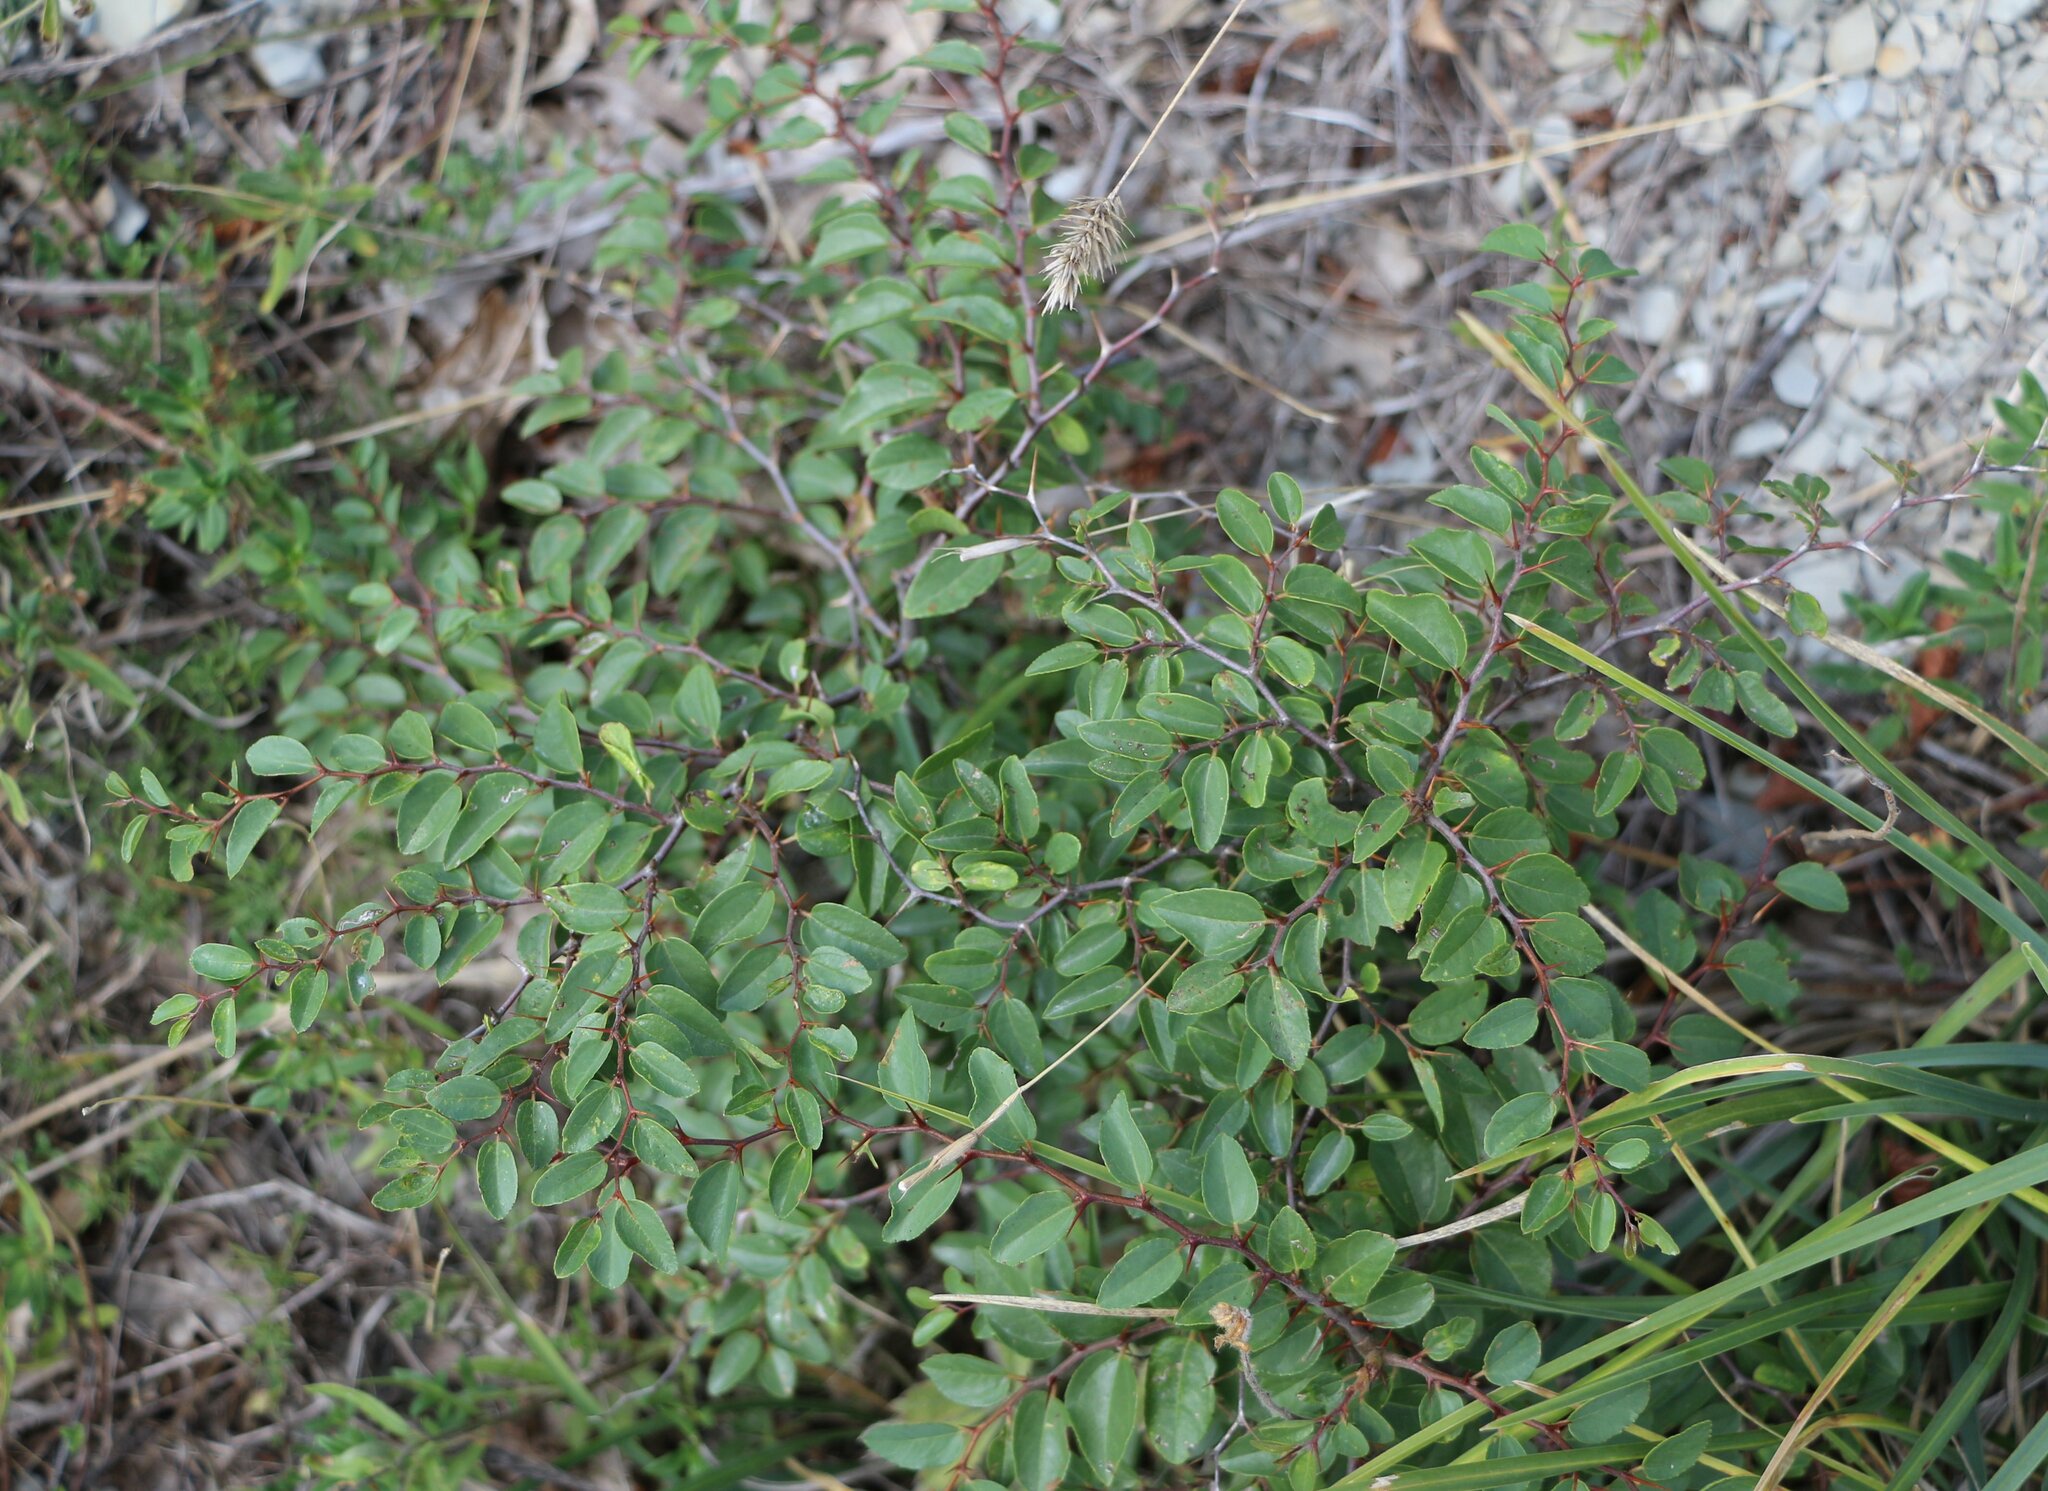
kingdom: Plantae
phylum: Tracheophyta
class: Magnoliopsida
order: Rosales
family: Rhamnaceae
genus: Paliurus
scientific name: Paliurus spina-christi
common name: Jeruselem thorn
